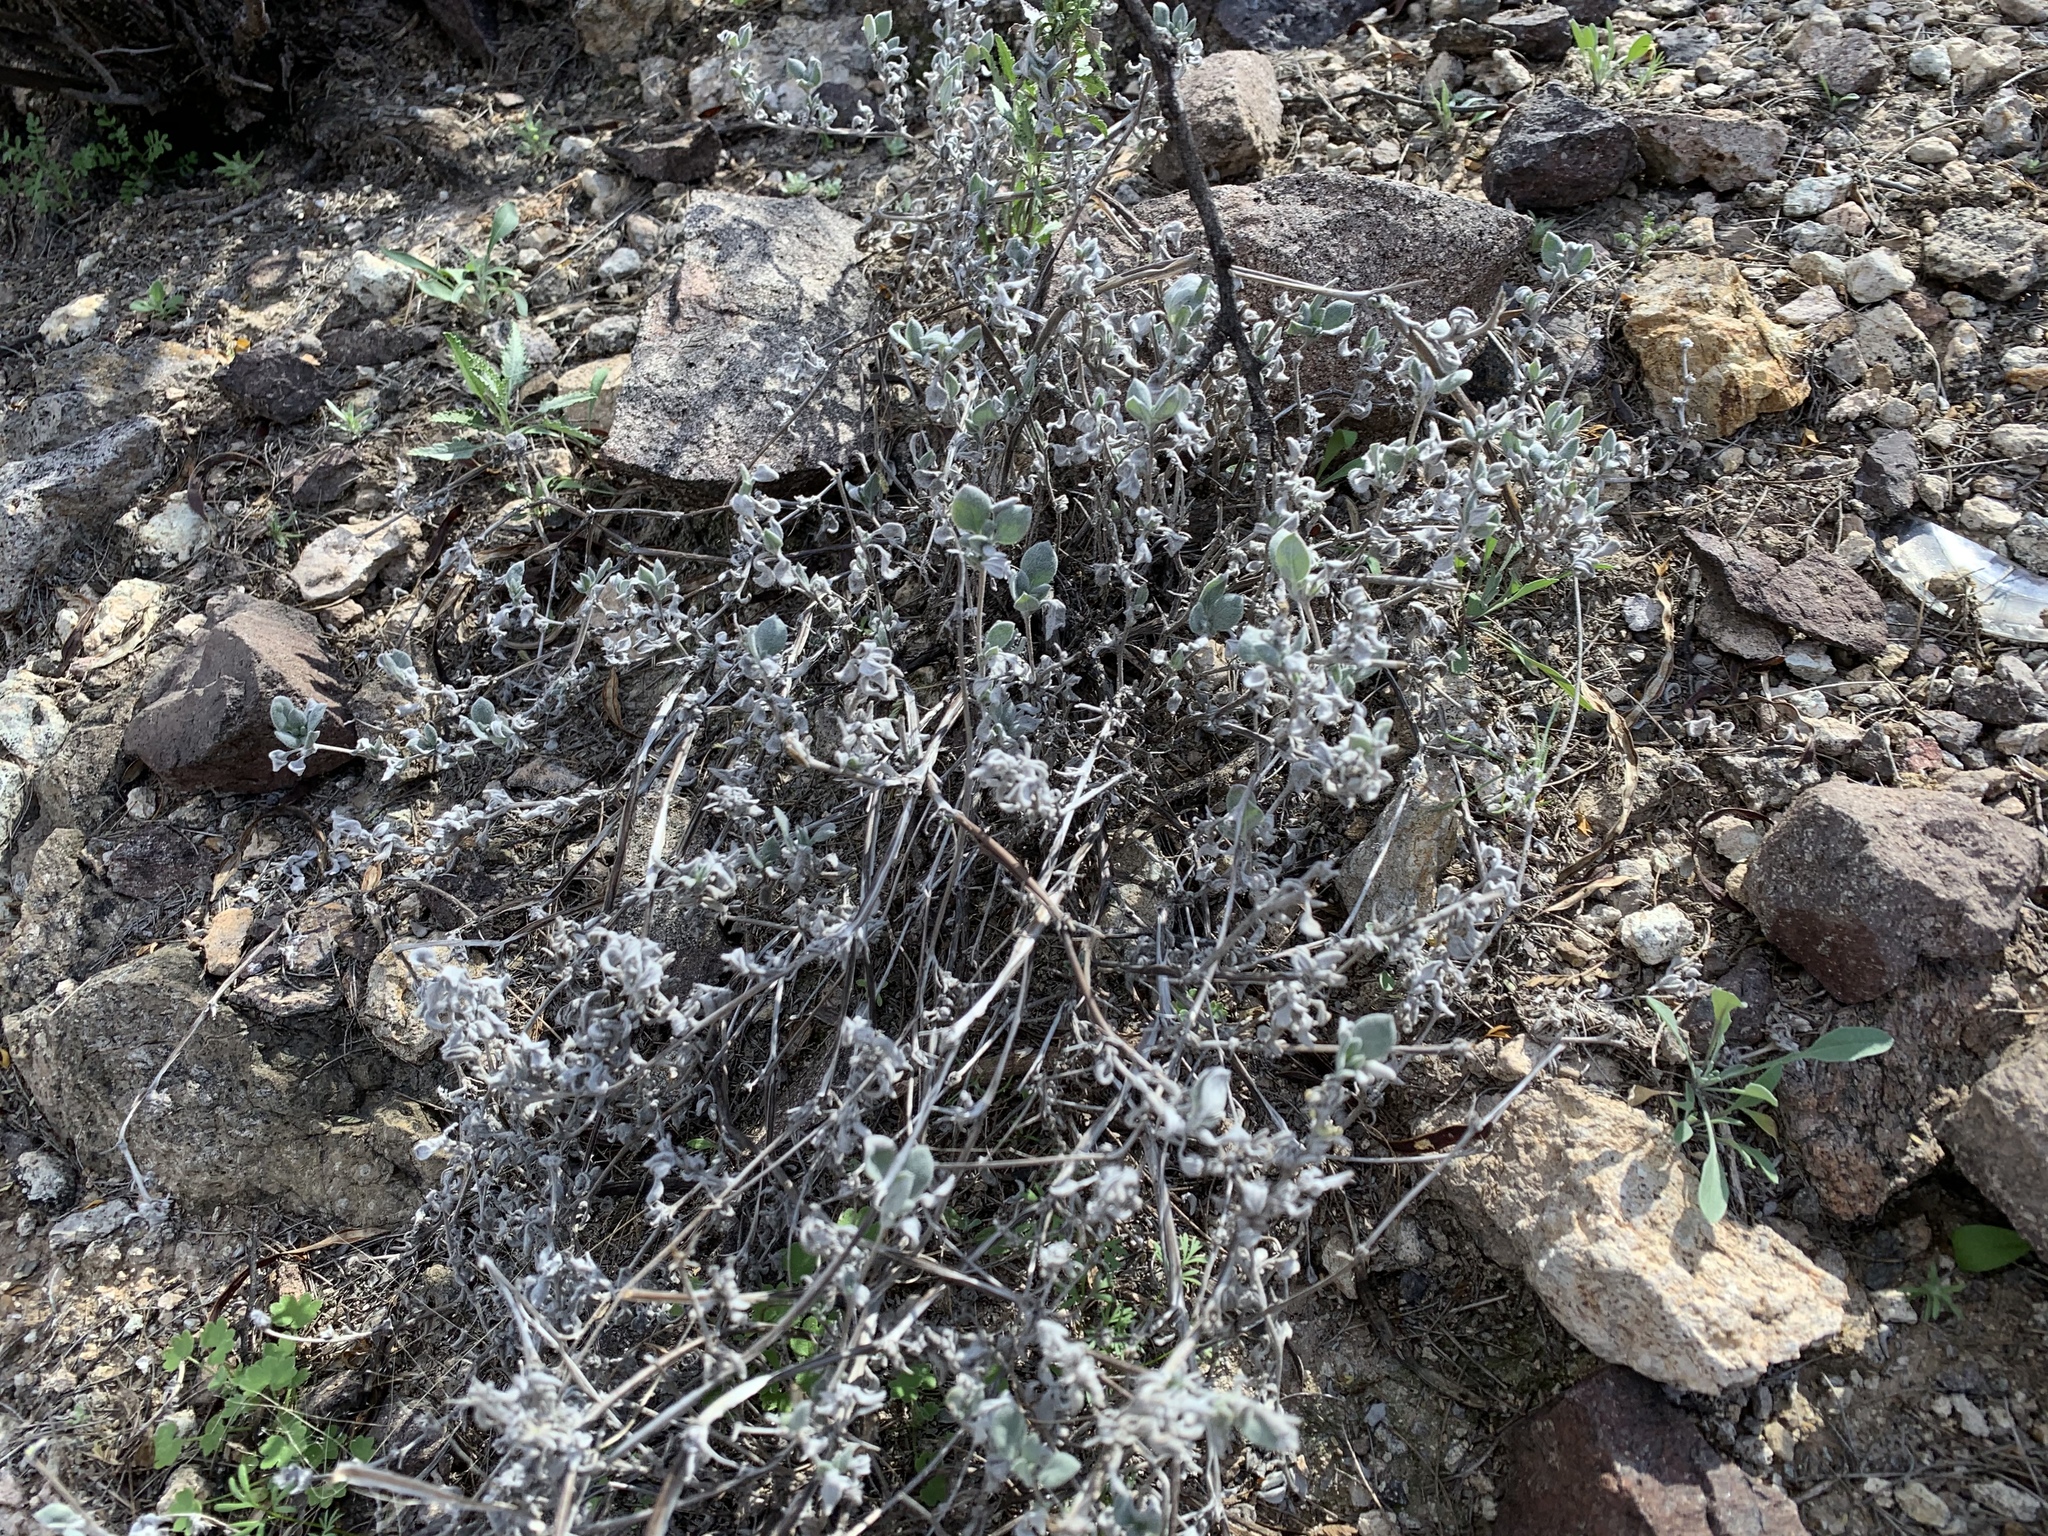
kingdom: Plantae
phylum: Tracheophyta
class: Magnoliopsida
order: Boraginales
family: Ehretiaceae
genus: Tiquilia
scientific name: Tiquilia canescens
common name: Hairy tiquilia
